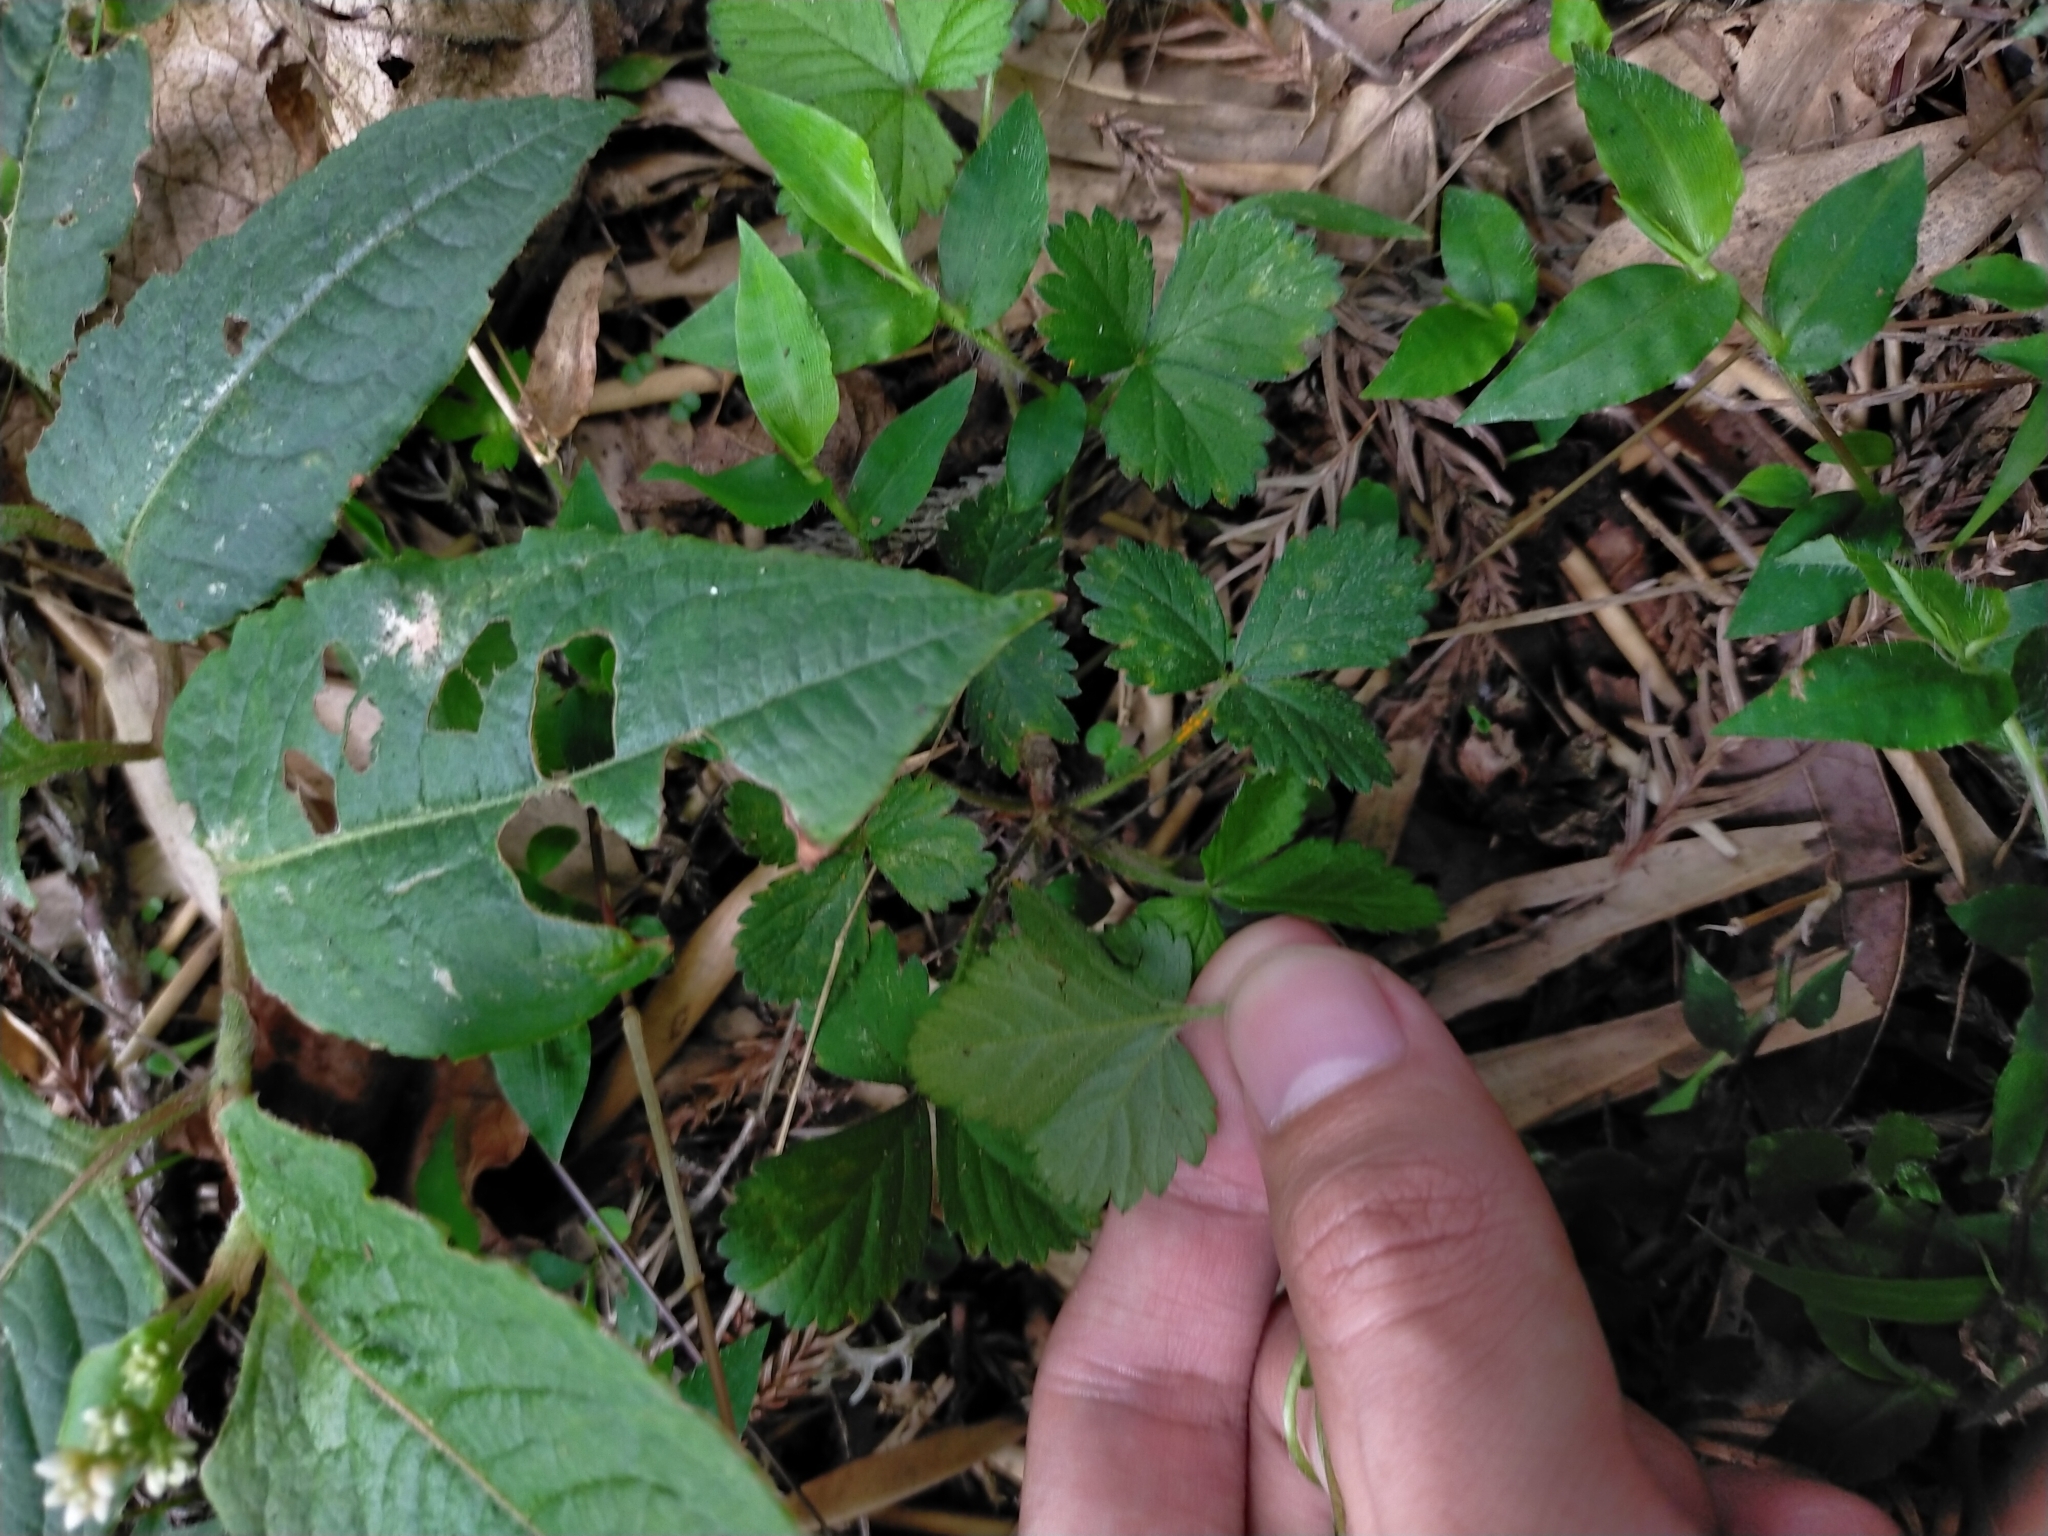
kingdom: Plantae
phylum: Tracheophyta
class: Magnoliopsida
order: Rosales
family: Rosaceae
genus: Potentilla
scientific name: Potentilla wallichiana
